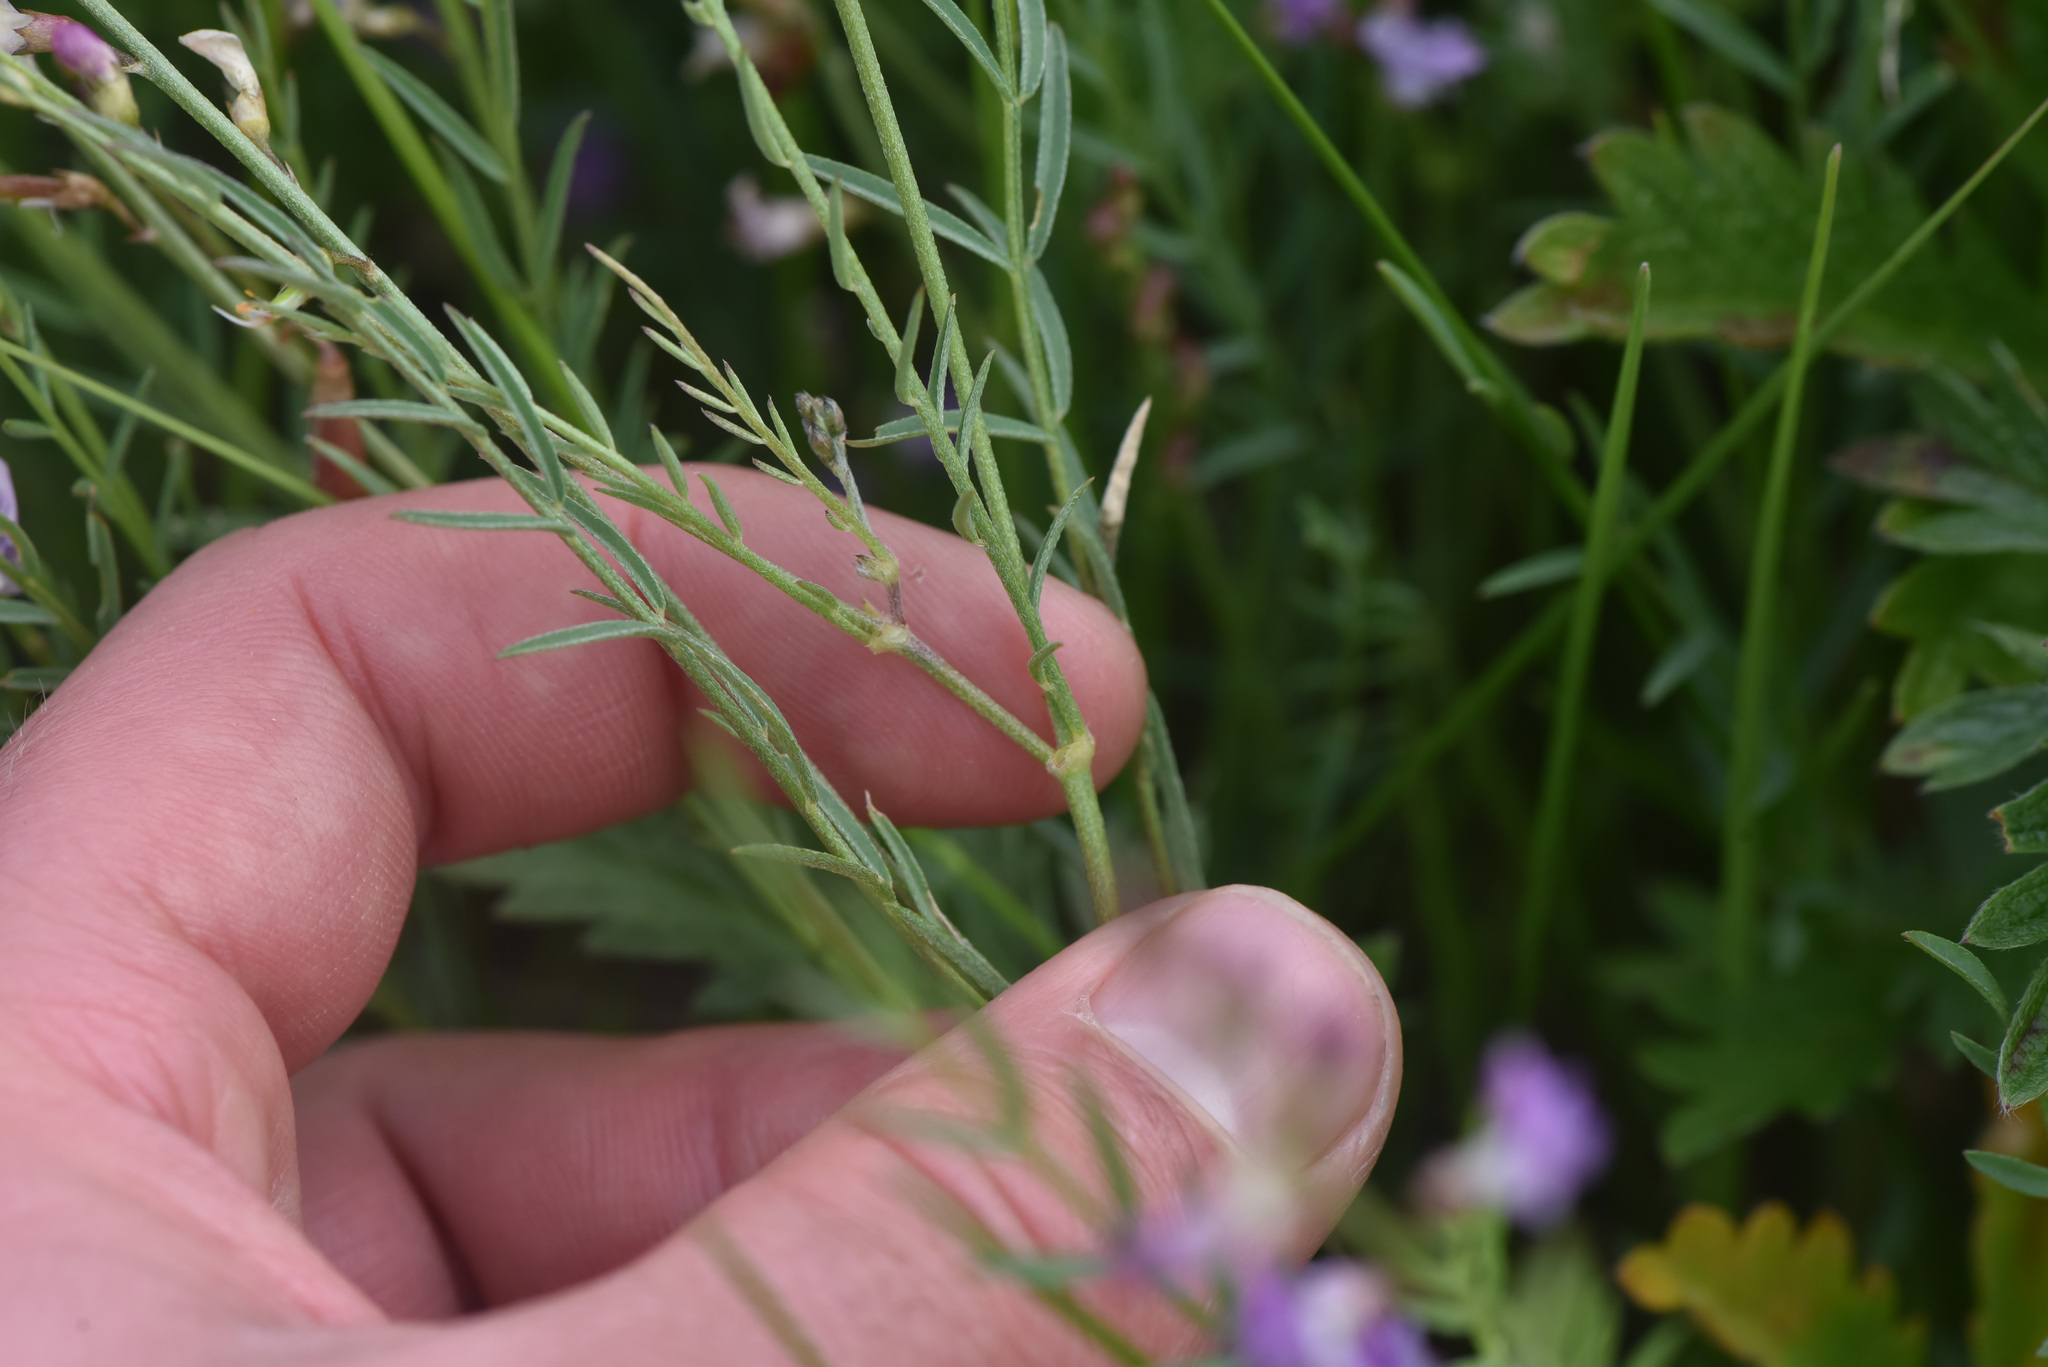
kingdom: Plantae
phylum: Tracheophyta
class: Magnoliopsida
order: Fabales
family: Fabaceae
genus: Astragalus
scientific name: Astragalus miser
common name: Timber milkvetch
